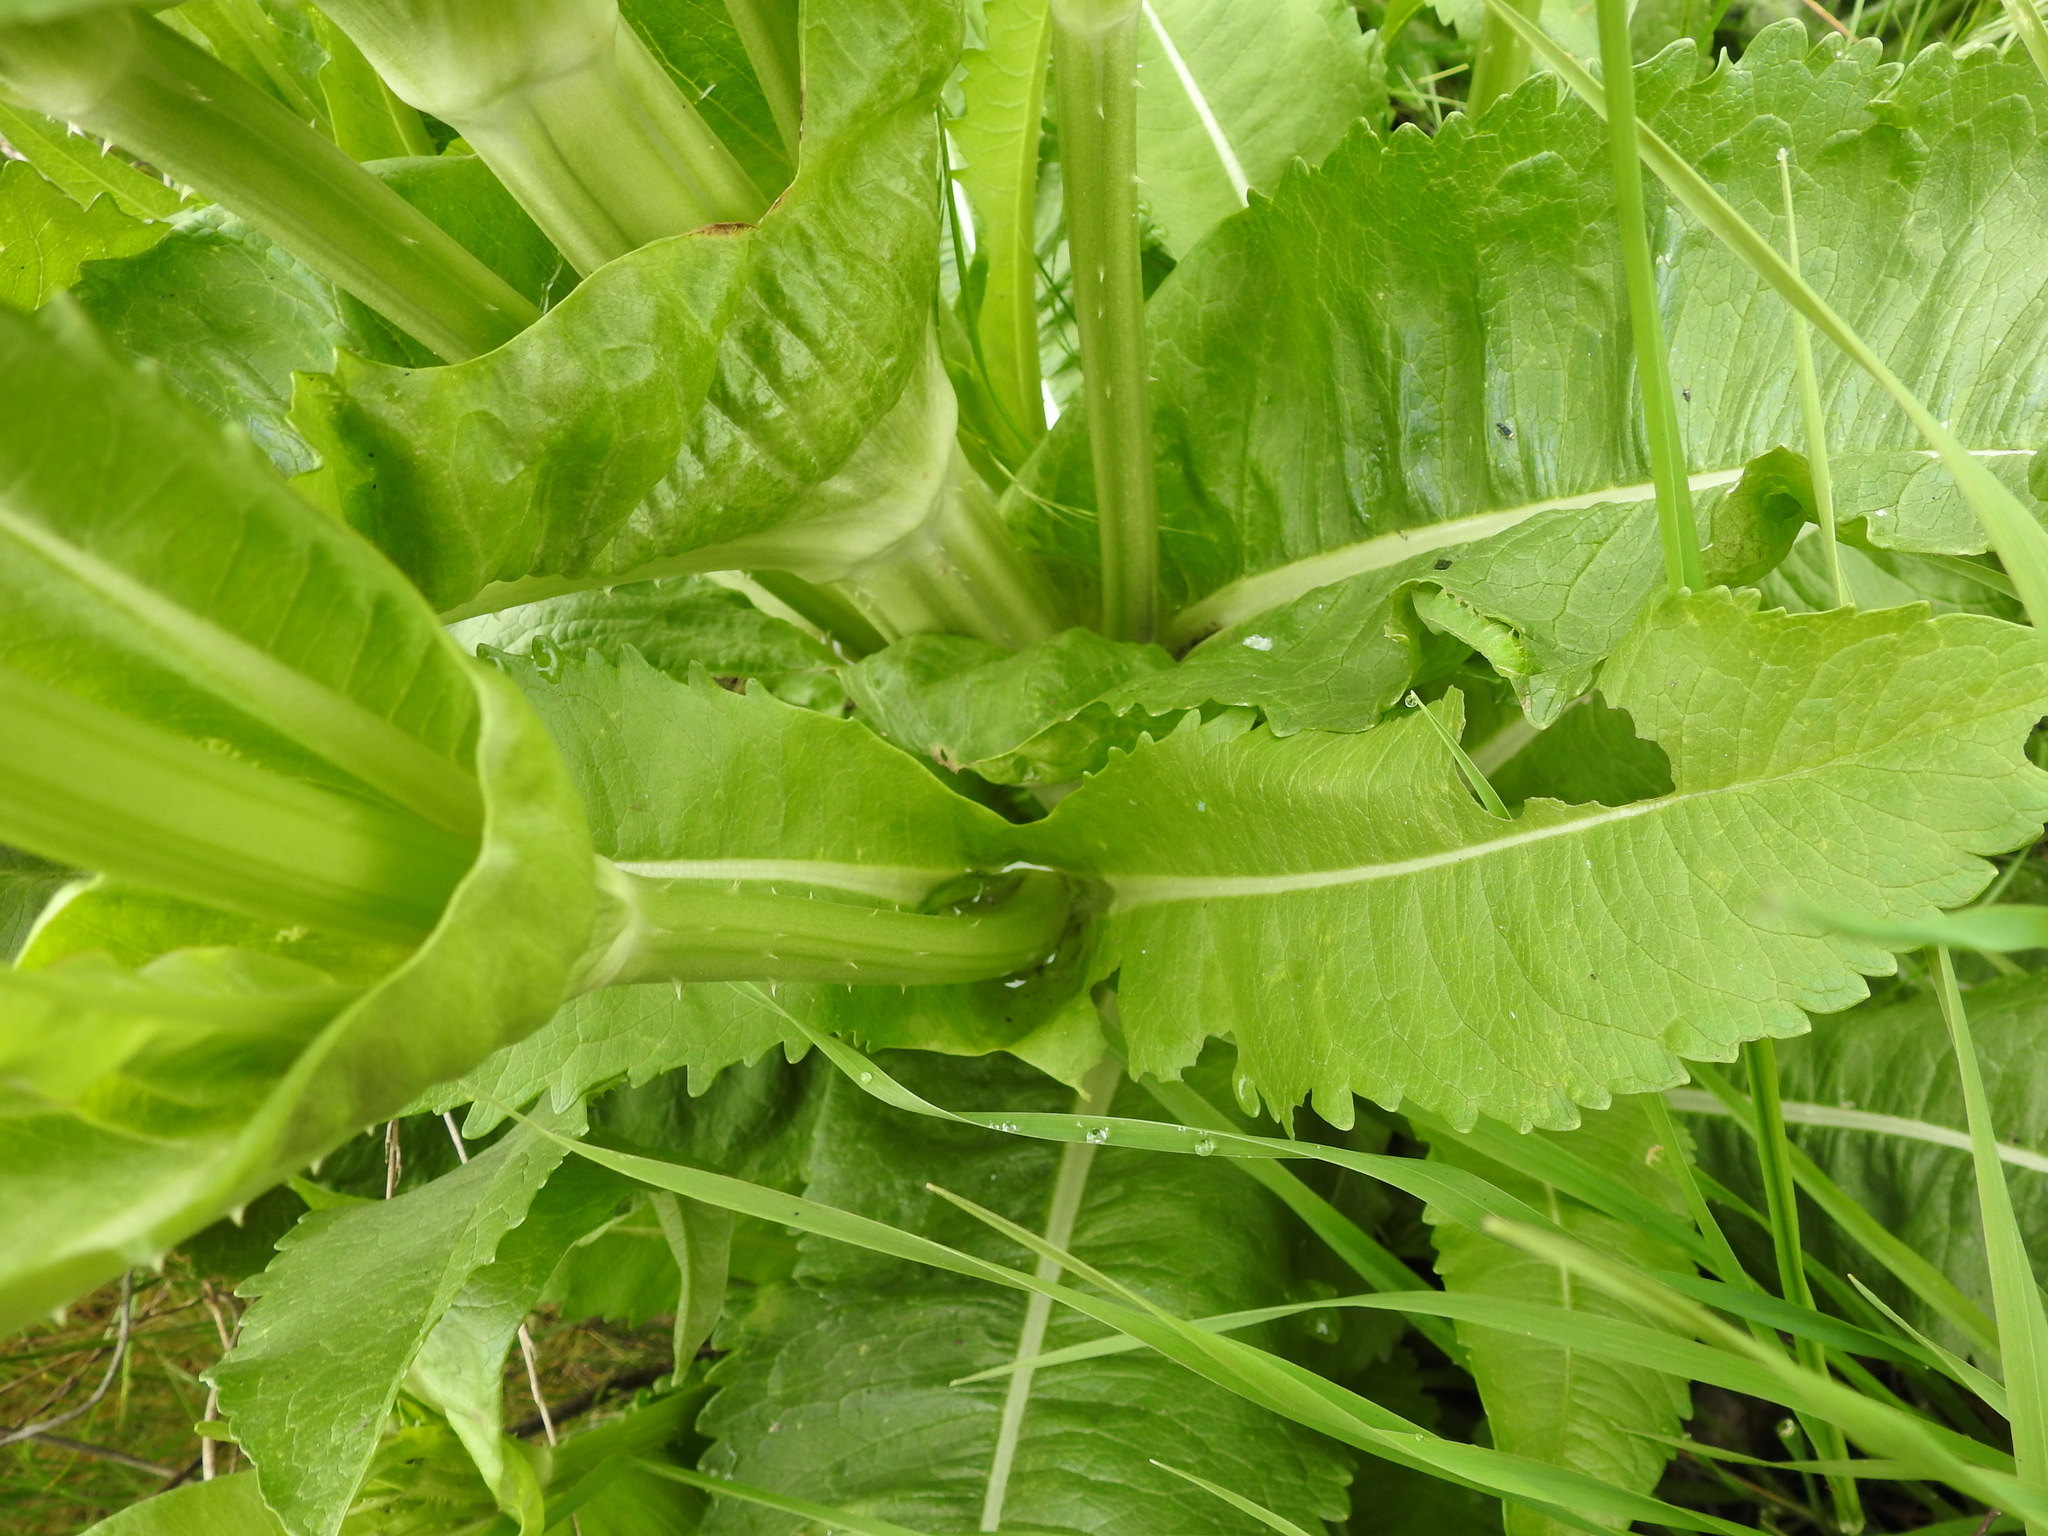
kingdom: Plantae
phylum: Tracheophyta
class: Magnoliopsida
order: Dipsacales
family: Caprifoliaceae
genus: Dipsacus
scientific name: Dipsacus sativus
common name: Fuller's teasel
